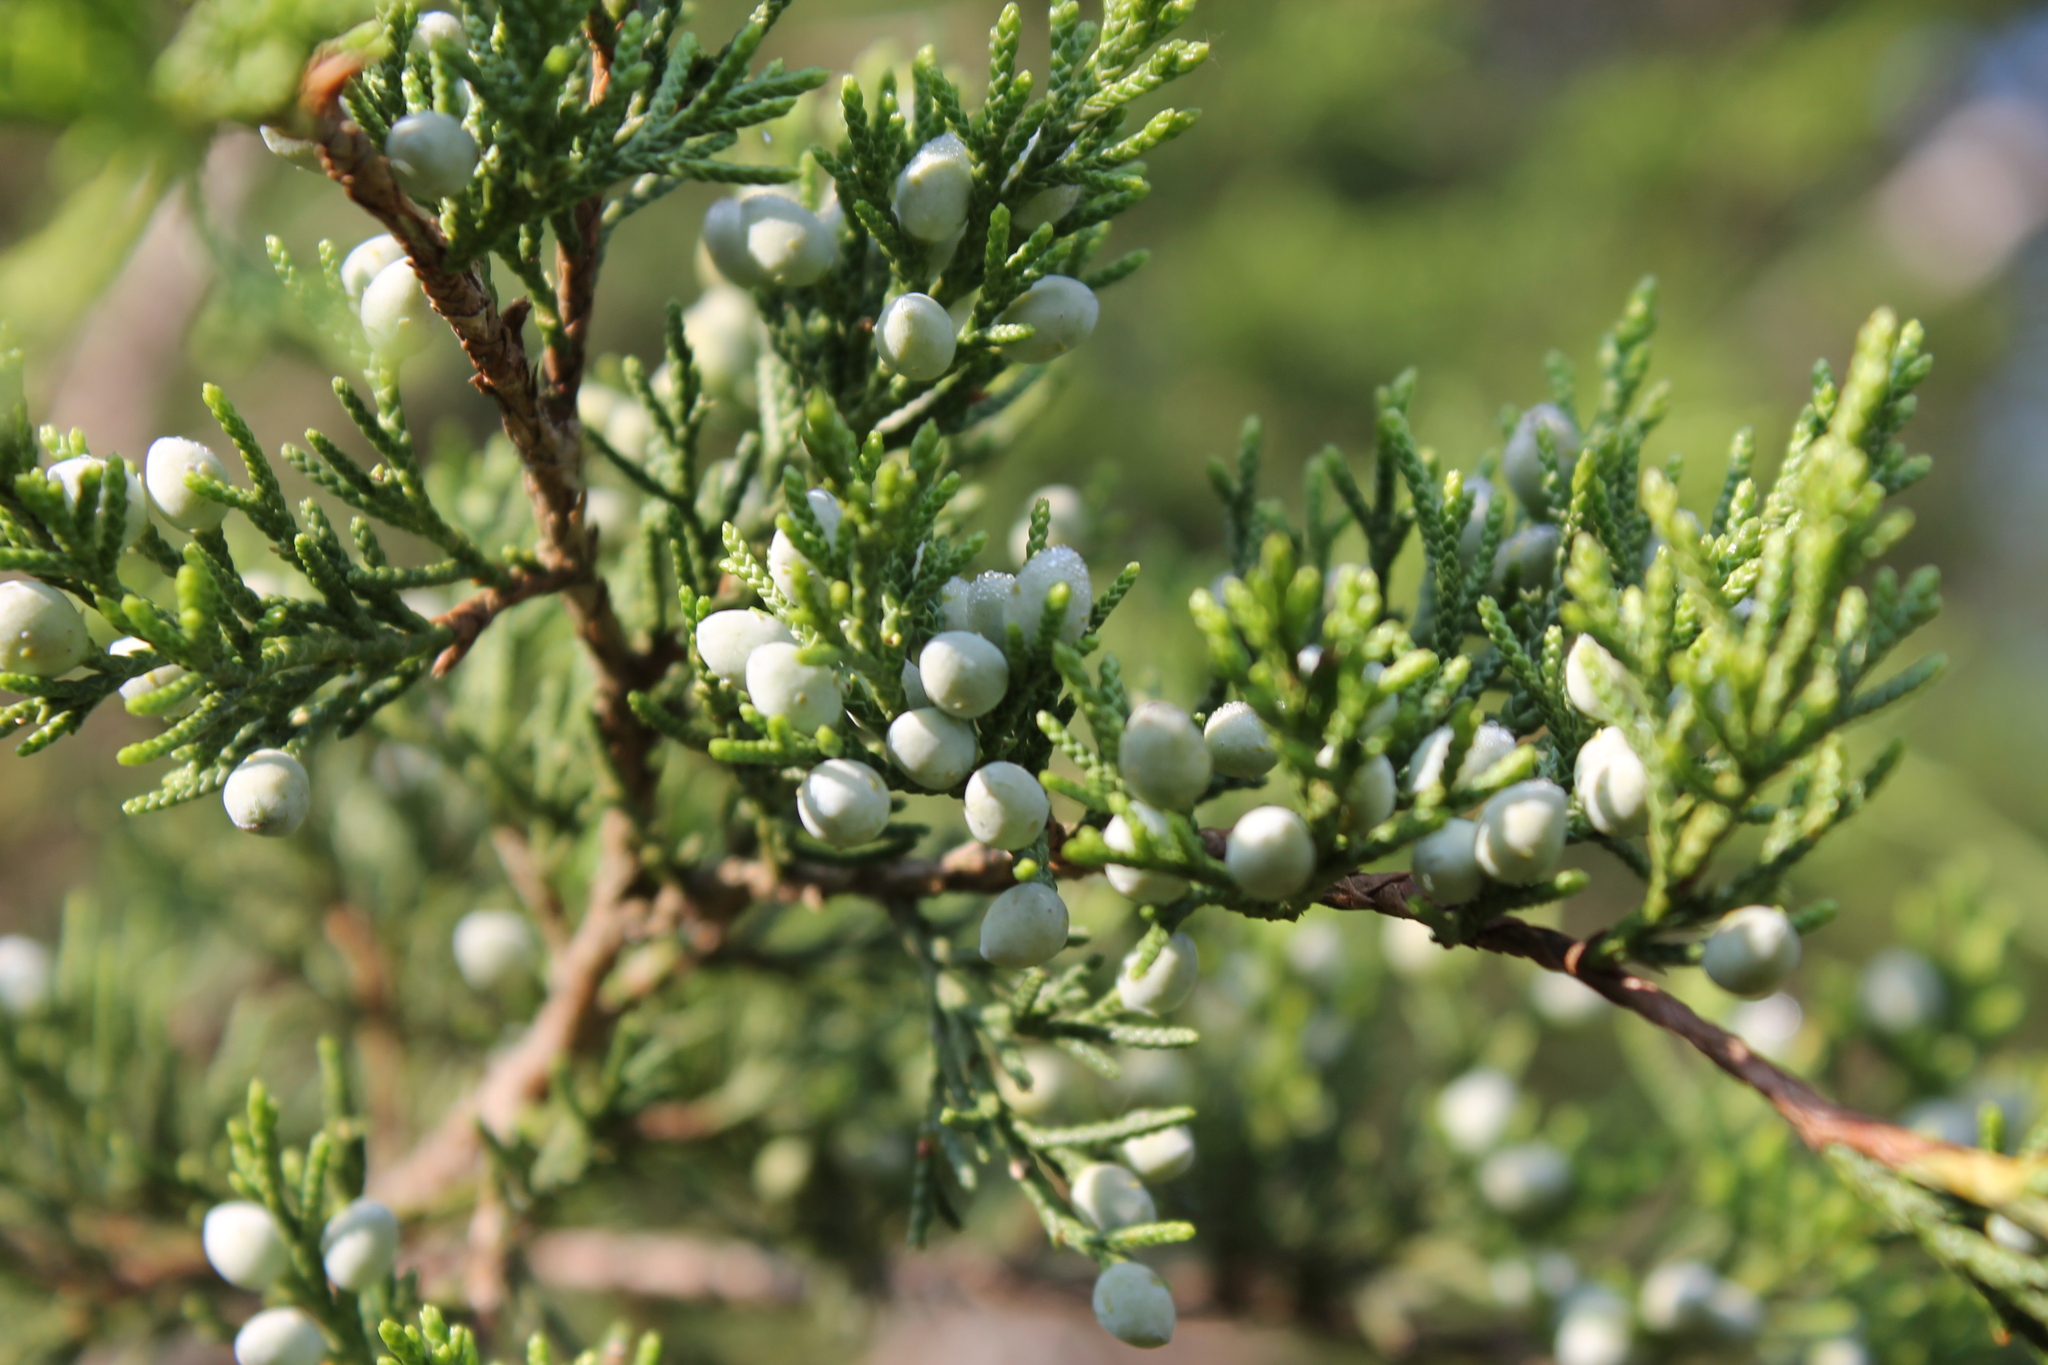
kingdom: Plantae
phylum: Tracheophyta
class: Pinopsida
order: Pinales
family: Cupressaceae
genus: Juniperus
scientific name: Juniperus virginiana
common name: Red juniper
